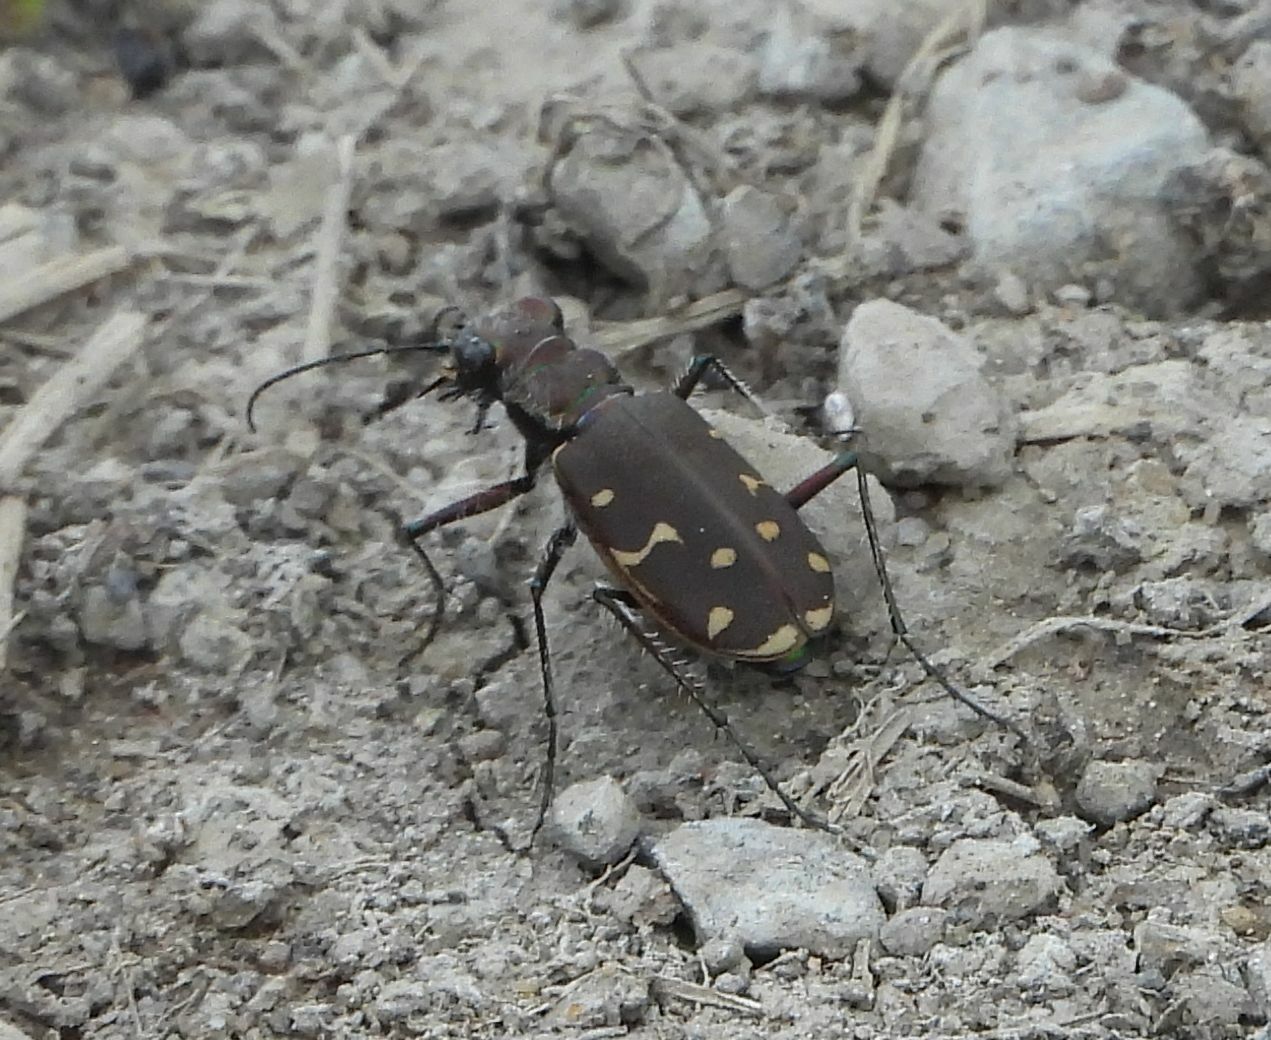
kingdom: Animalia
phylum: Arthropoda
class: Insecta
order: Coleoptera
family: Carabidae
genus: Cicindela
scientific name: Cicindela duodecimguttata
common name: Twelve-spotted tiger beetle
